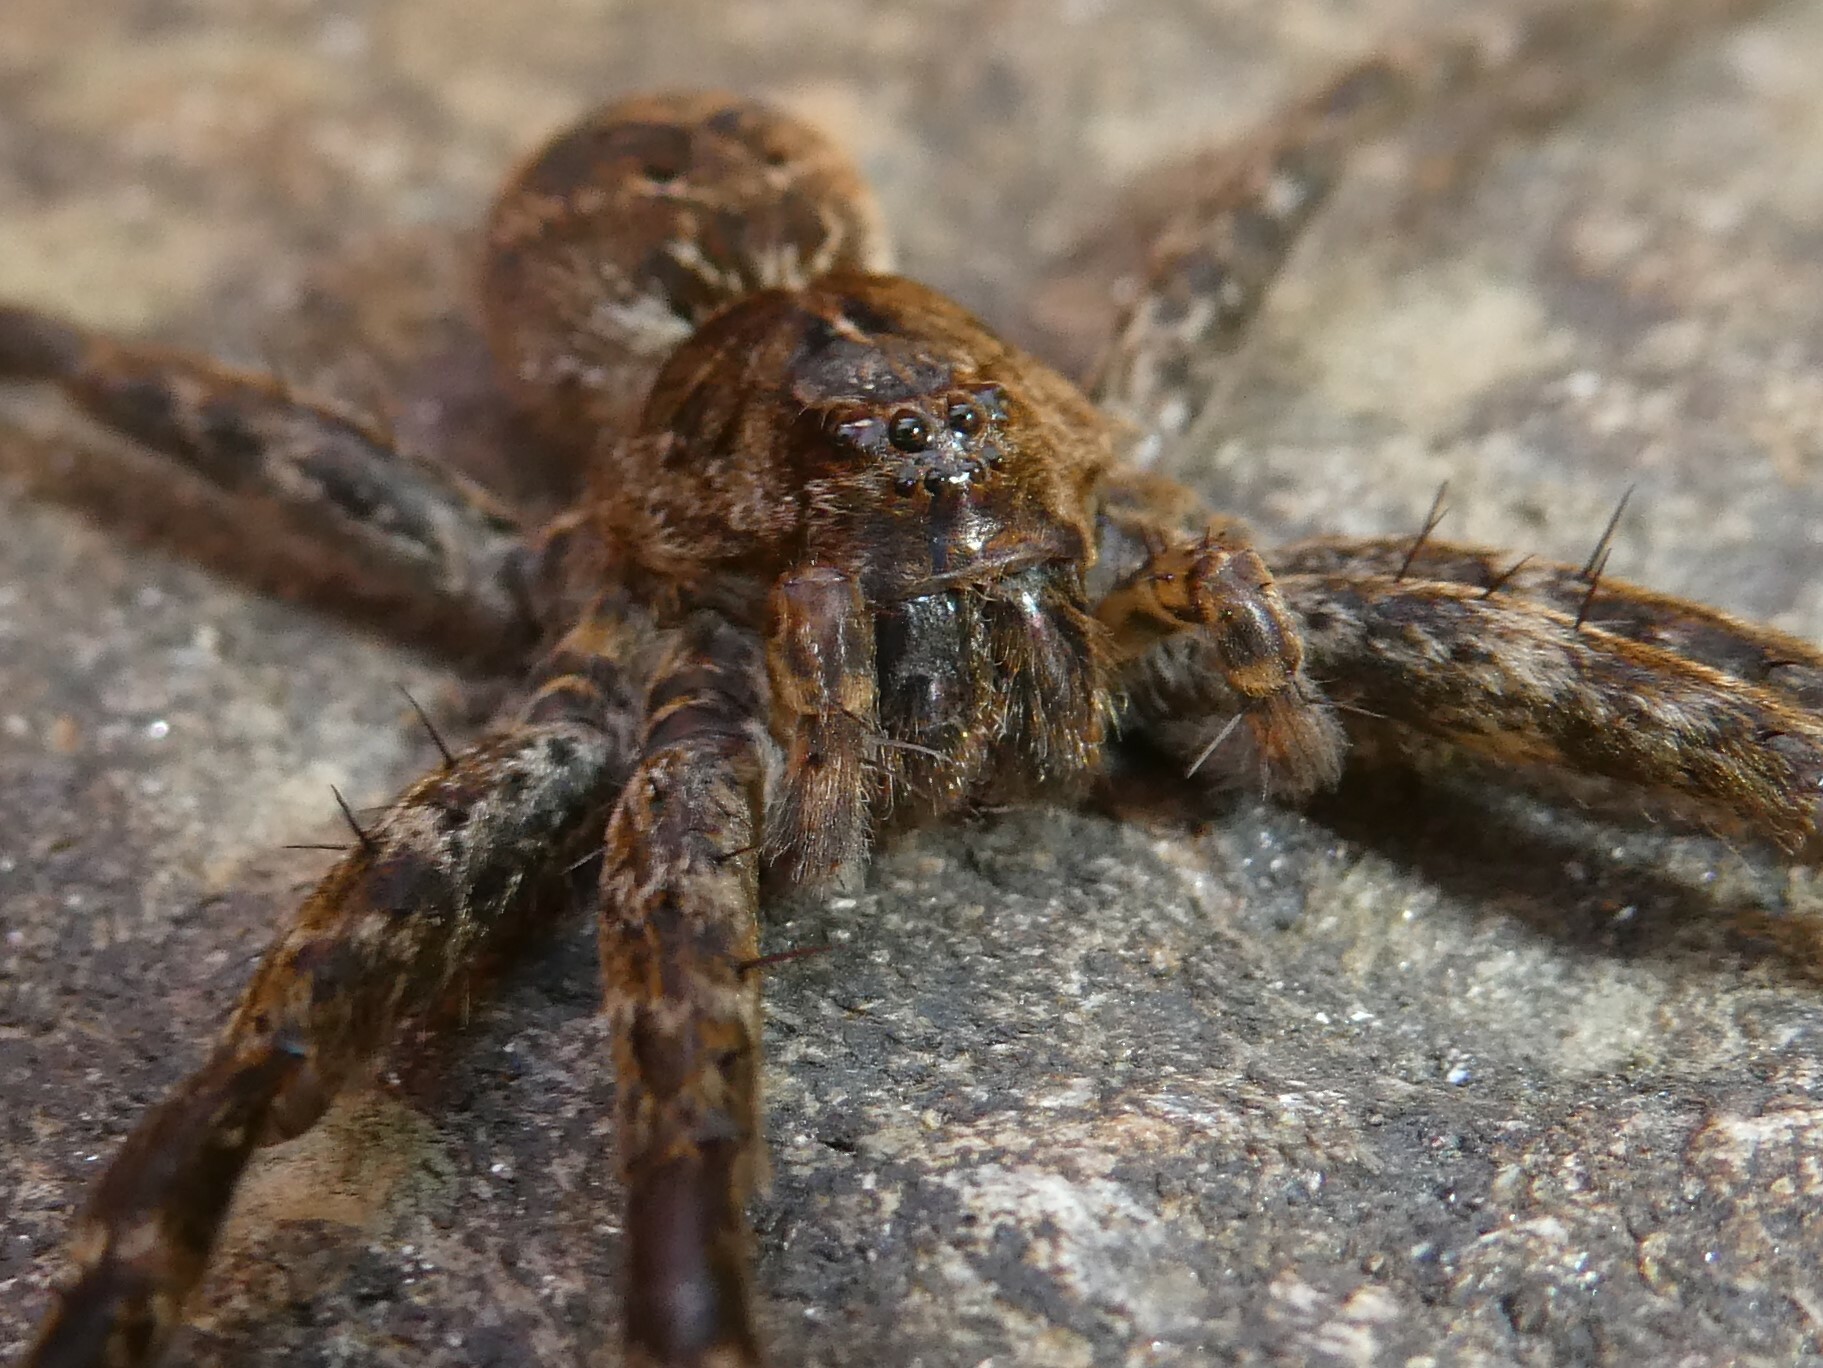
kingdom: Animalia
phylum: Arthropoda
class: Arachnida
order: Araneae
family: Pisauridae
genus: Dolomedes
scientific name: Dolomedes scriptus
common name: Striped fishing spider
